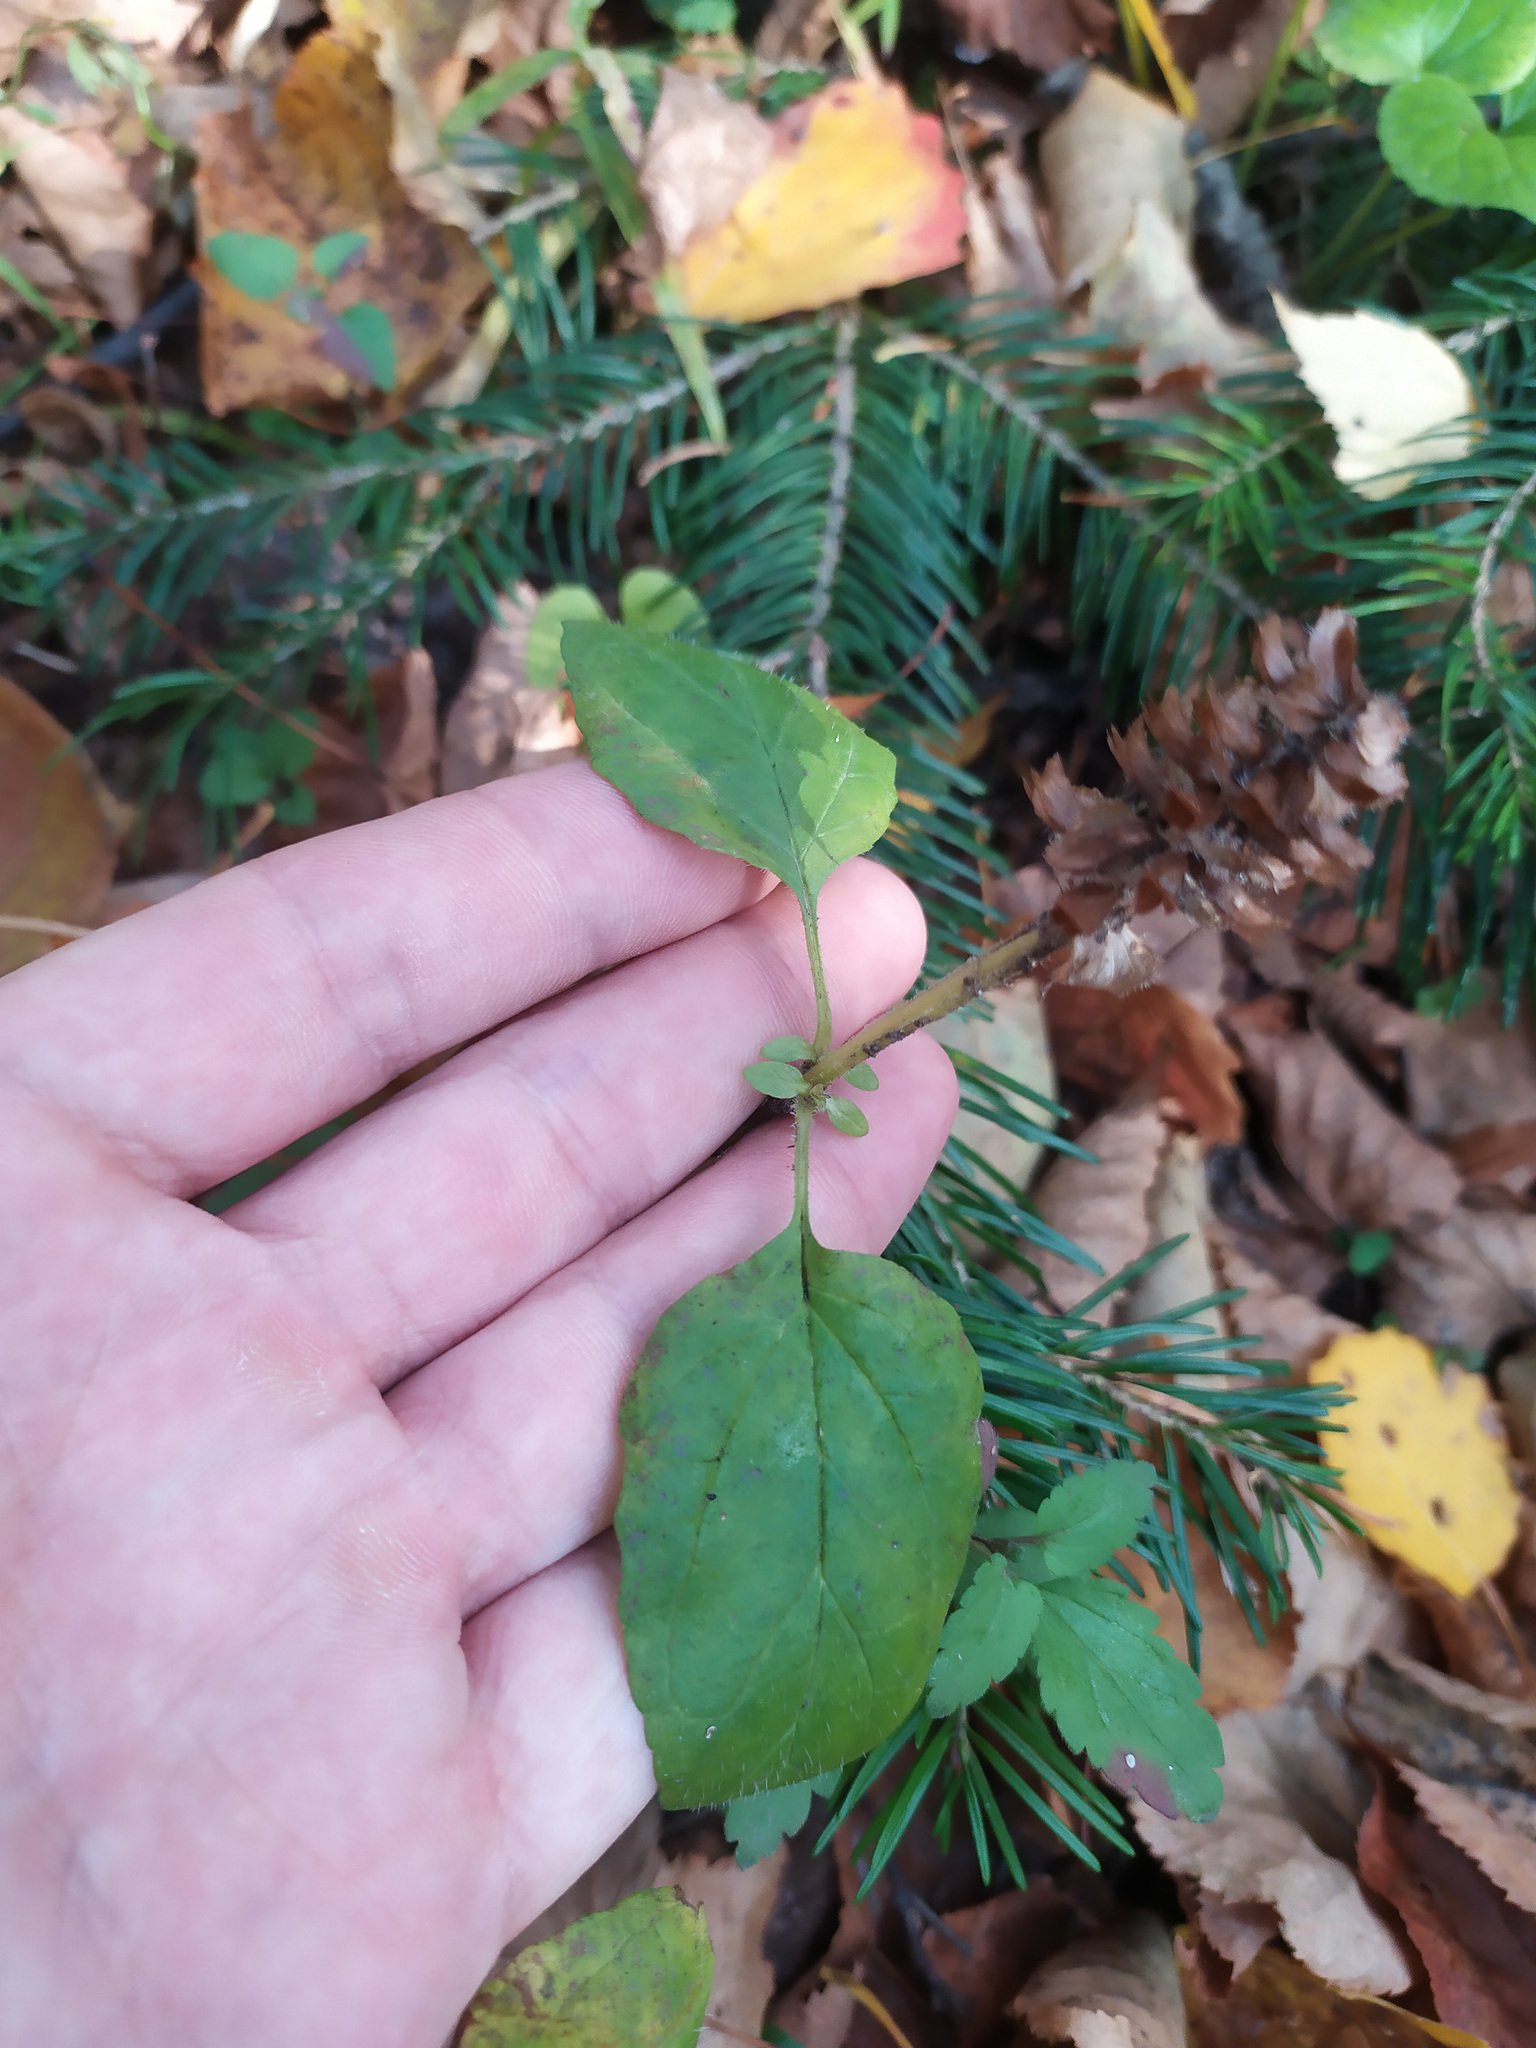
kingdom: Plantae
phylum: Tracheophyta
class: Magnoliopsida
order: Lamiales
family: Lamiaceae
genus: Prunella
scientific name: Prunella vulgaris
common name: Heal-all
